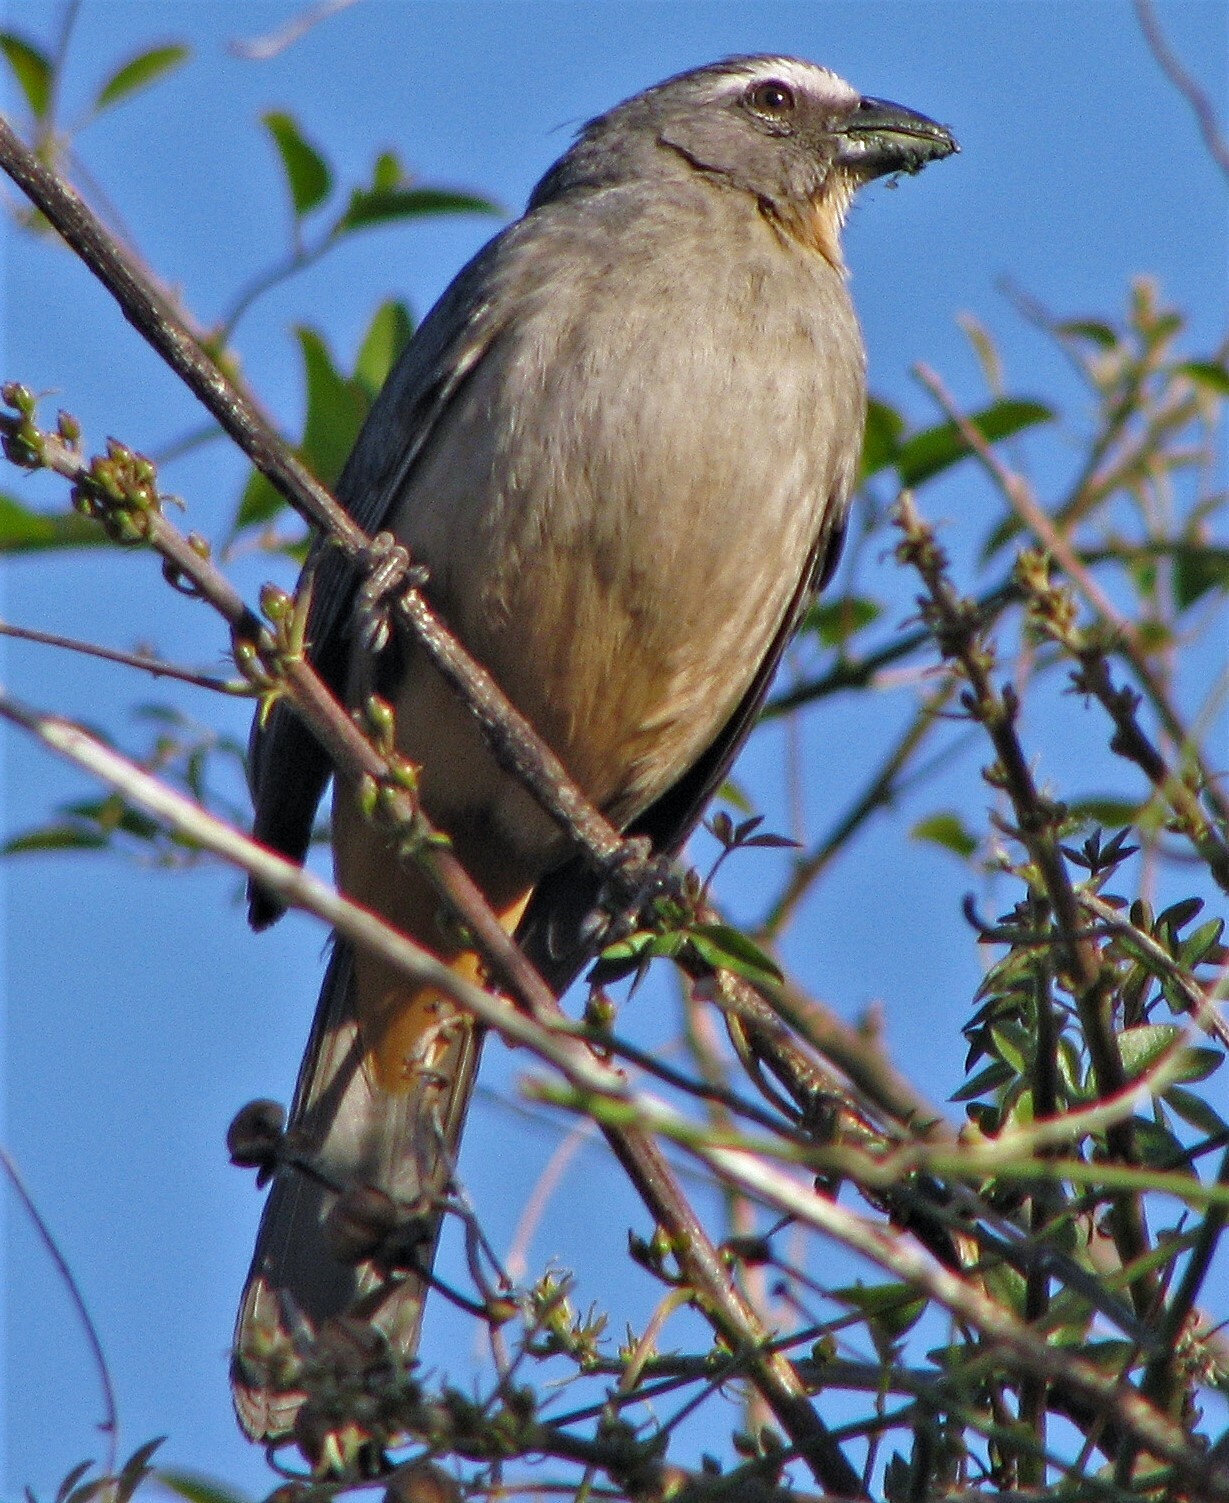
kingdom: Animalia
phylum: Chordata
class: Aves
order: Passeriformes
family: Thraupidae
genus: Saltator
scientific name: Saltator coerulescens
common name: Grayish saltator
